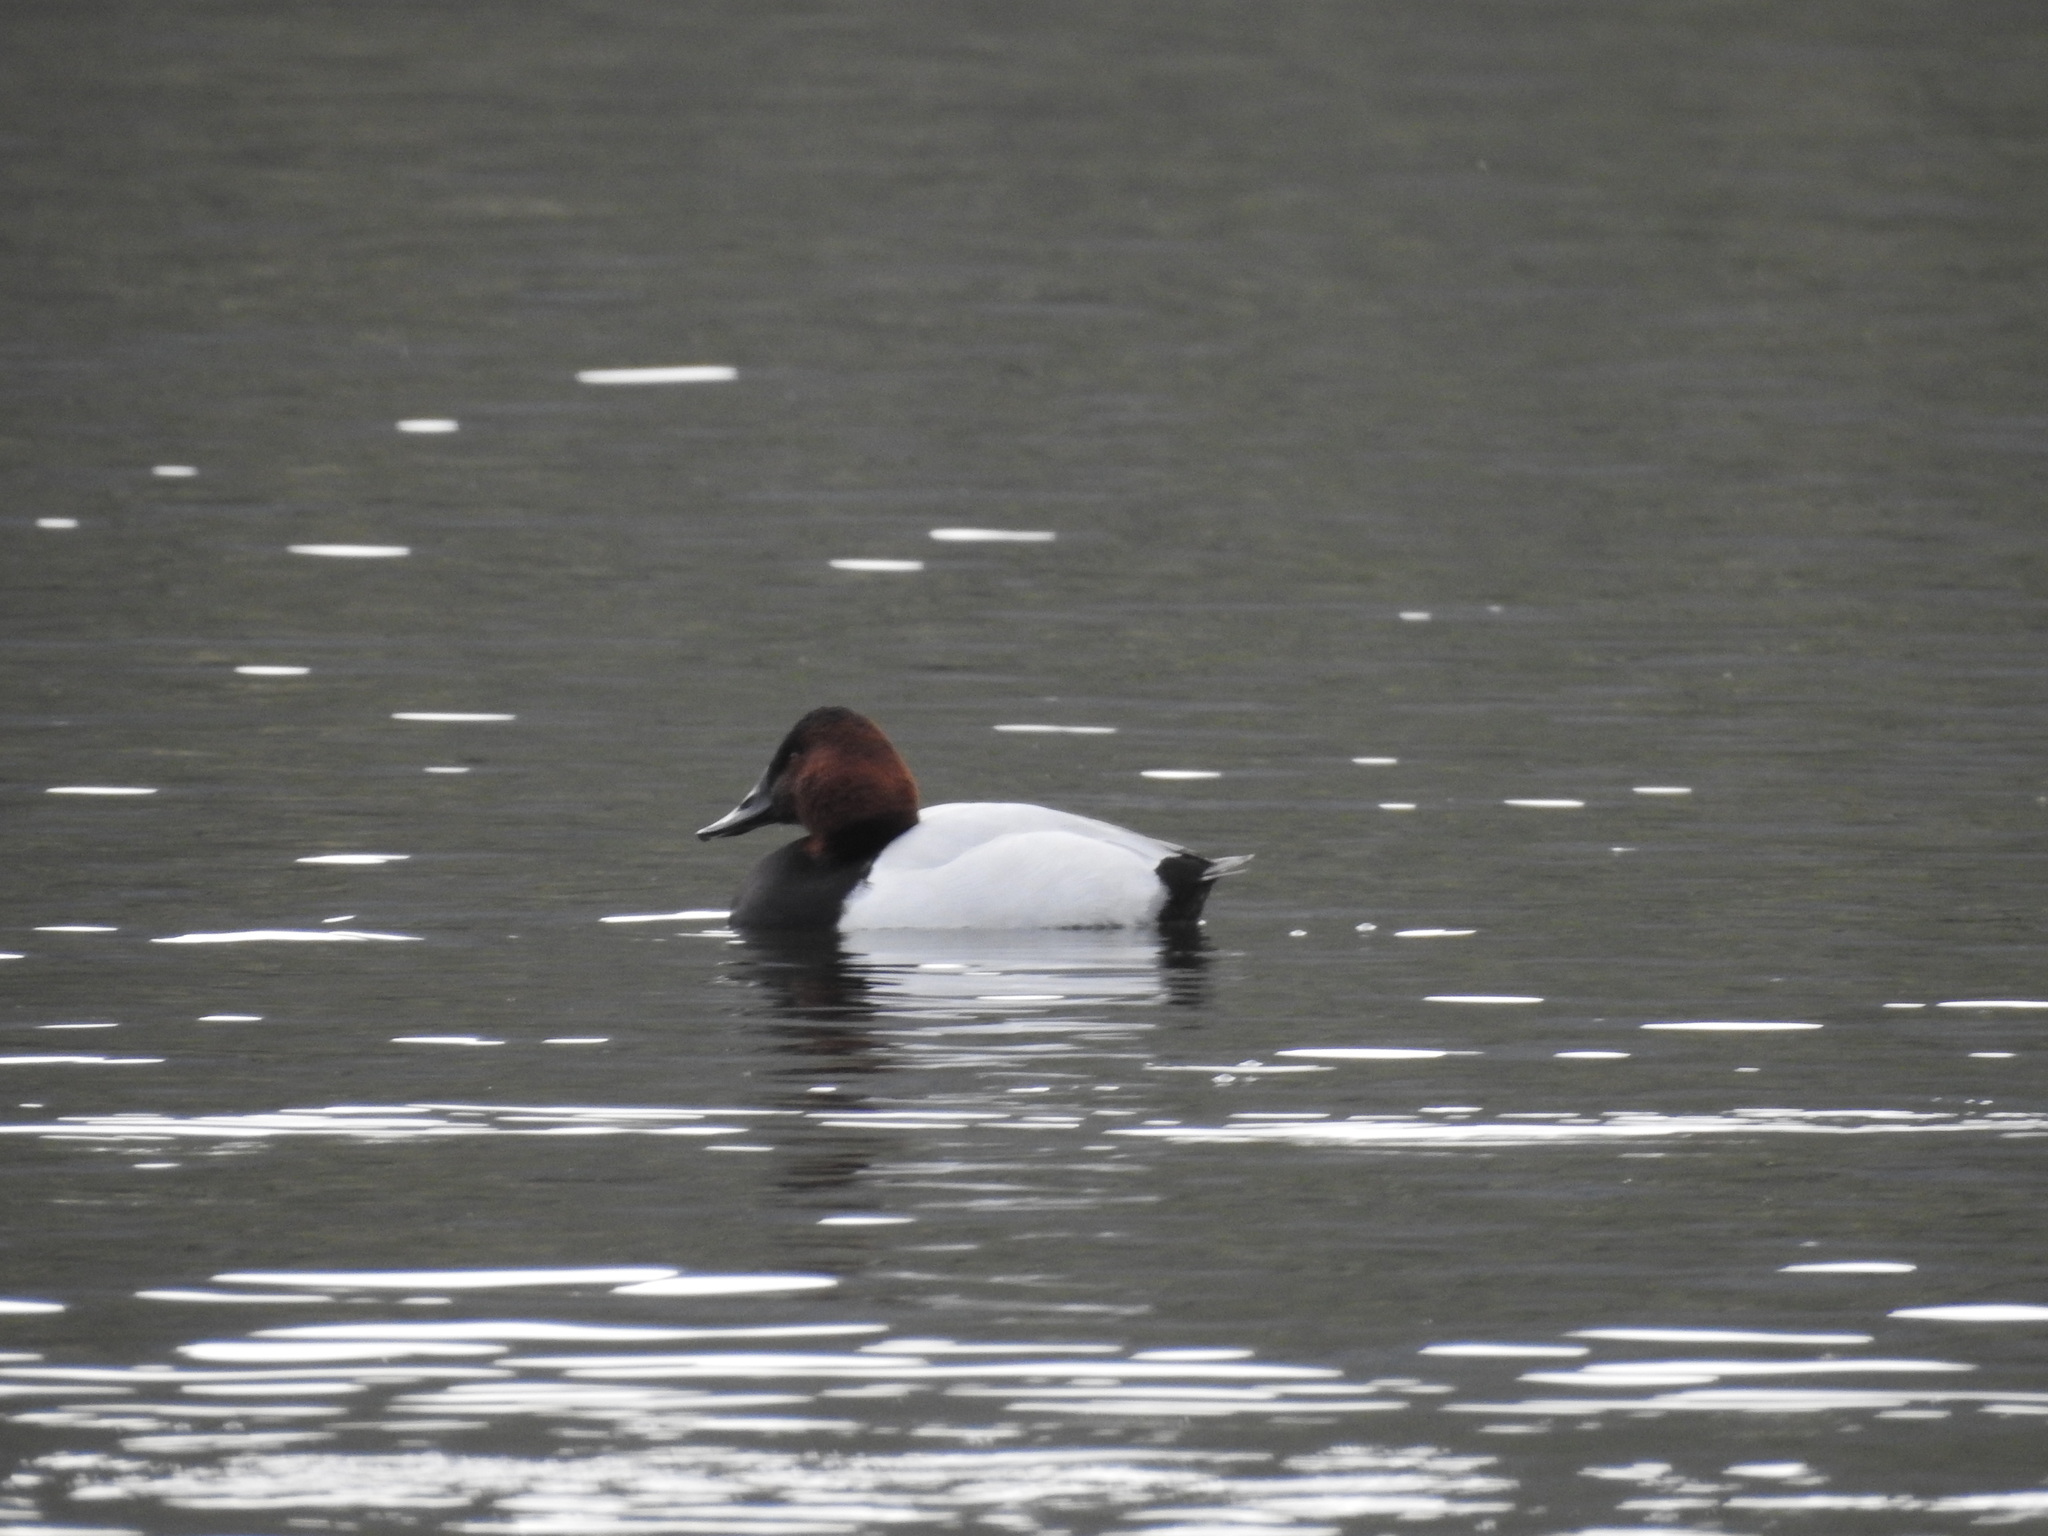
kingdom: Animalia
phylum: Chordata
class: Aves
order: Anseriformes
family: Anatidae
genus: Aythya
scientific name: Aythya valisineria
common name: Canvasback
